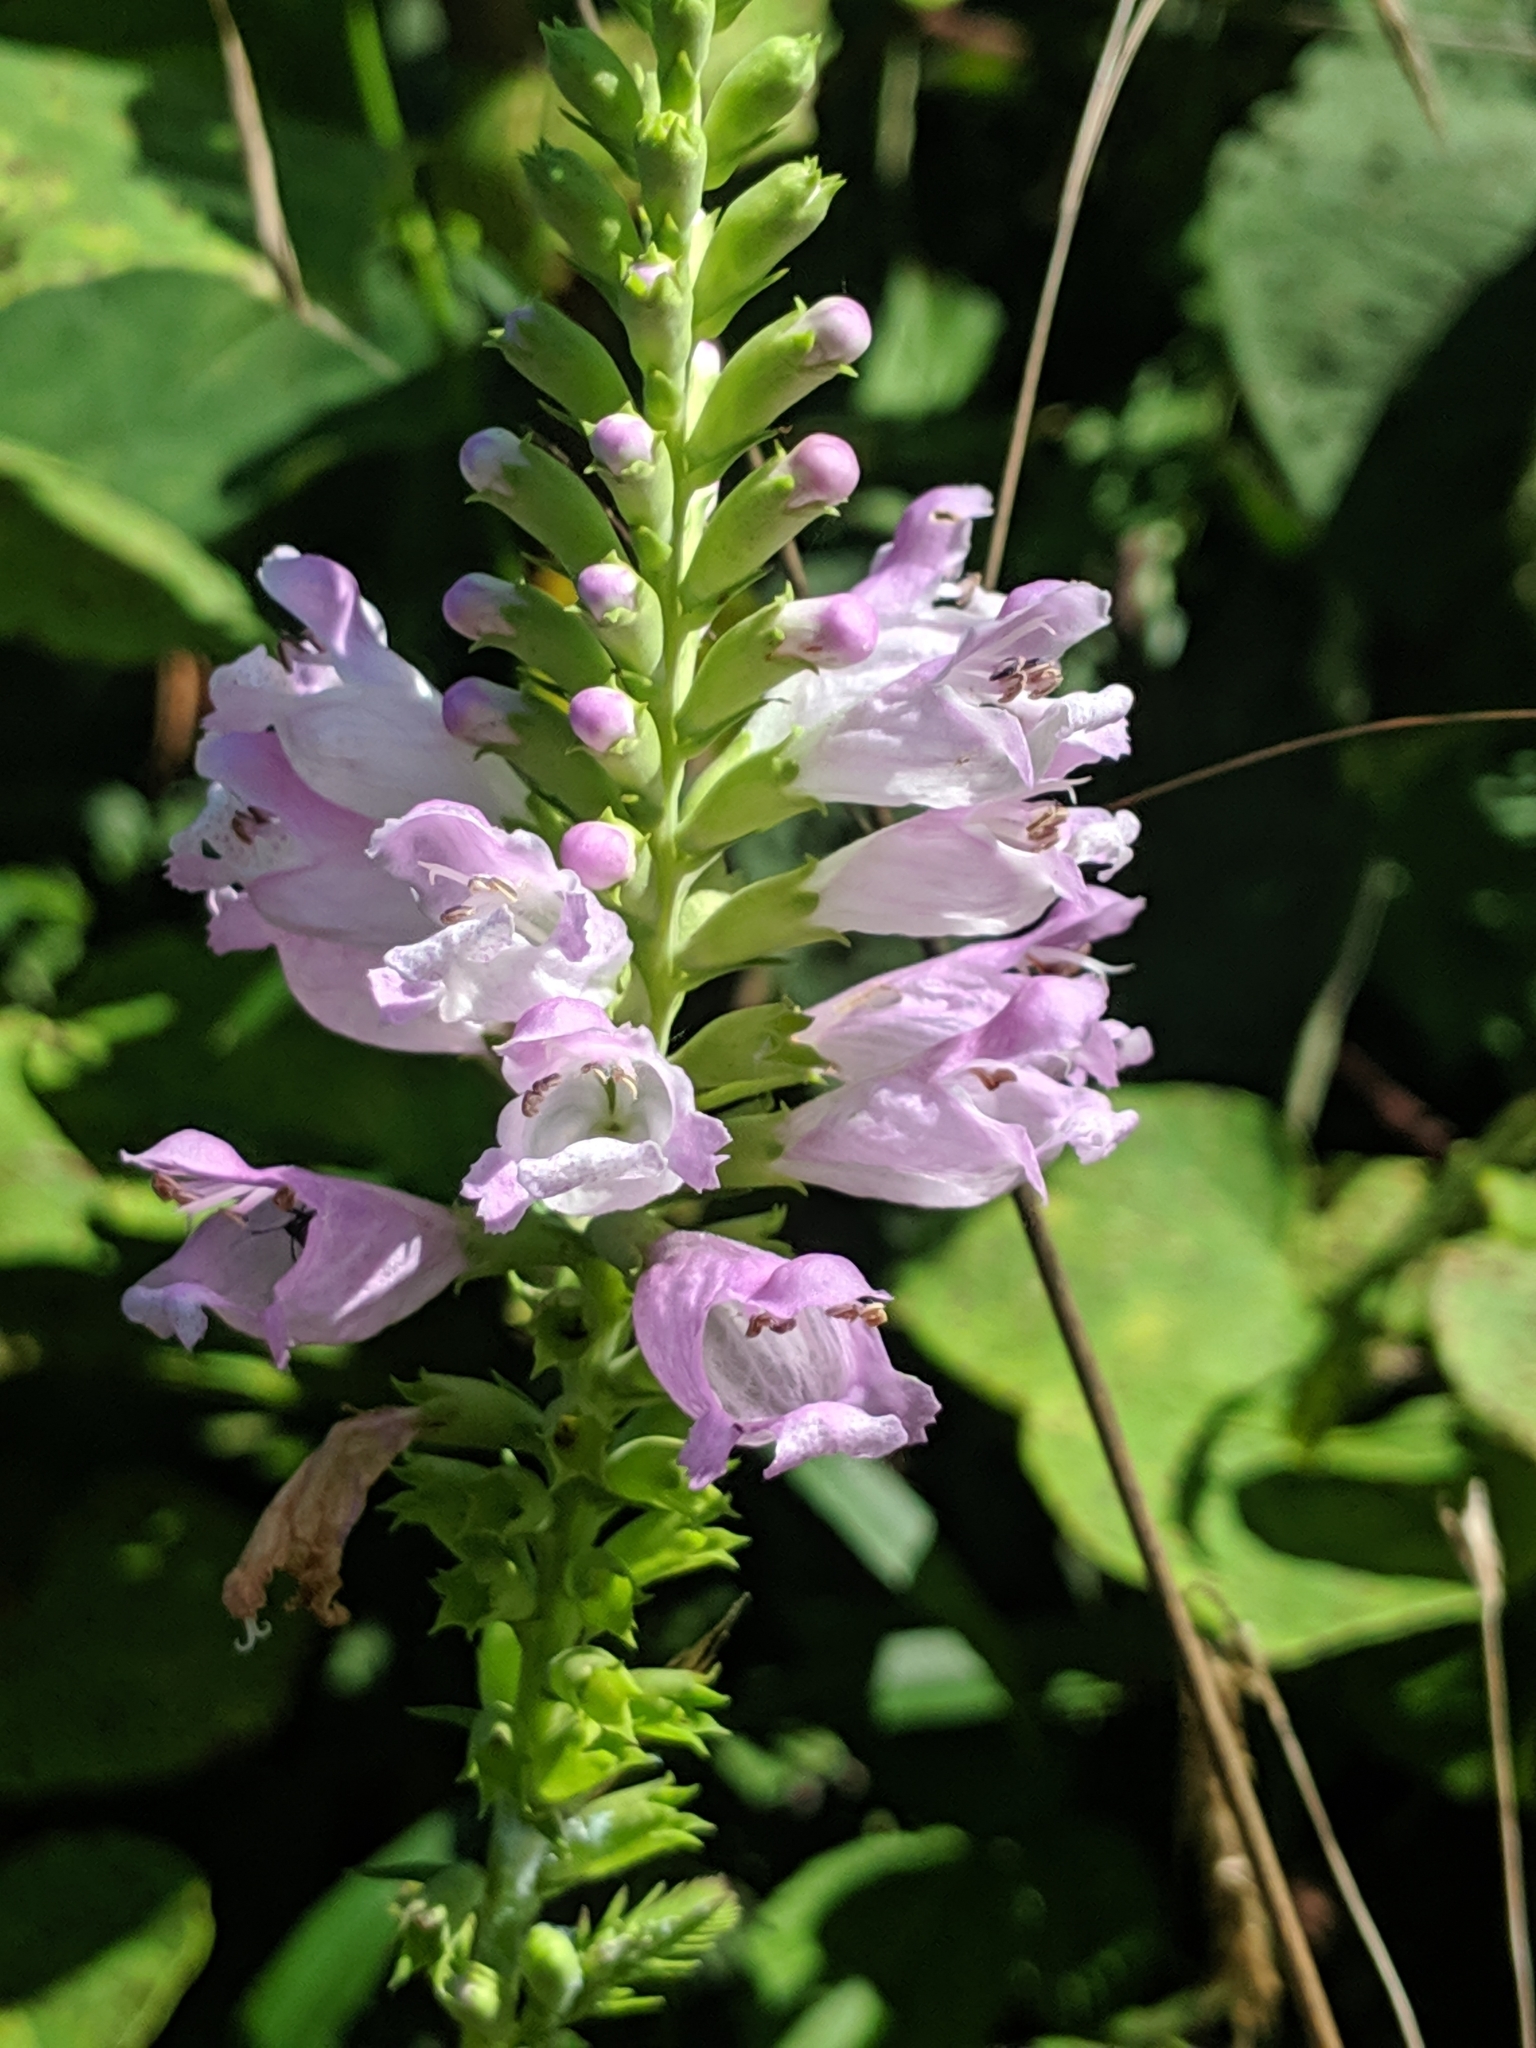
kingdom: Plantae
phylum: Tracheophyta
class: Magnoliopsida
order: Lamiales
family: Lamiaceae
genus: Physostegia
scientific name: Physostegia virginiana
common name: Obedient-plant
